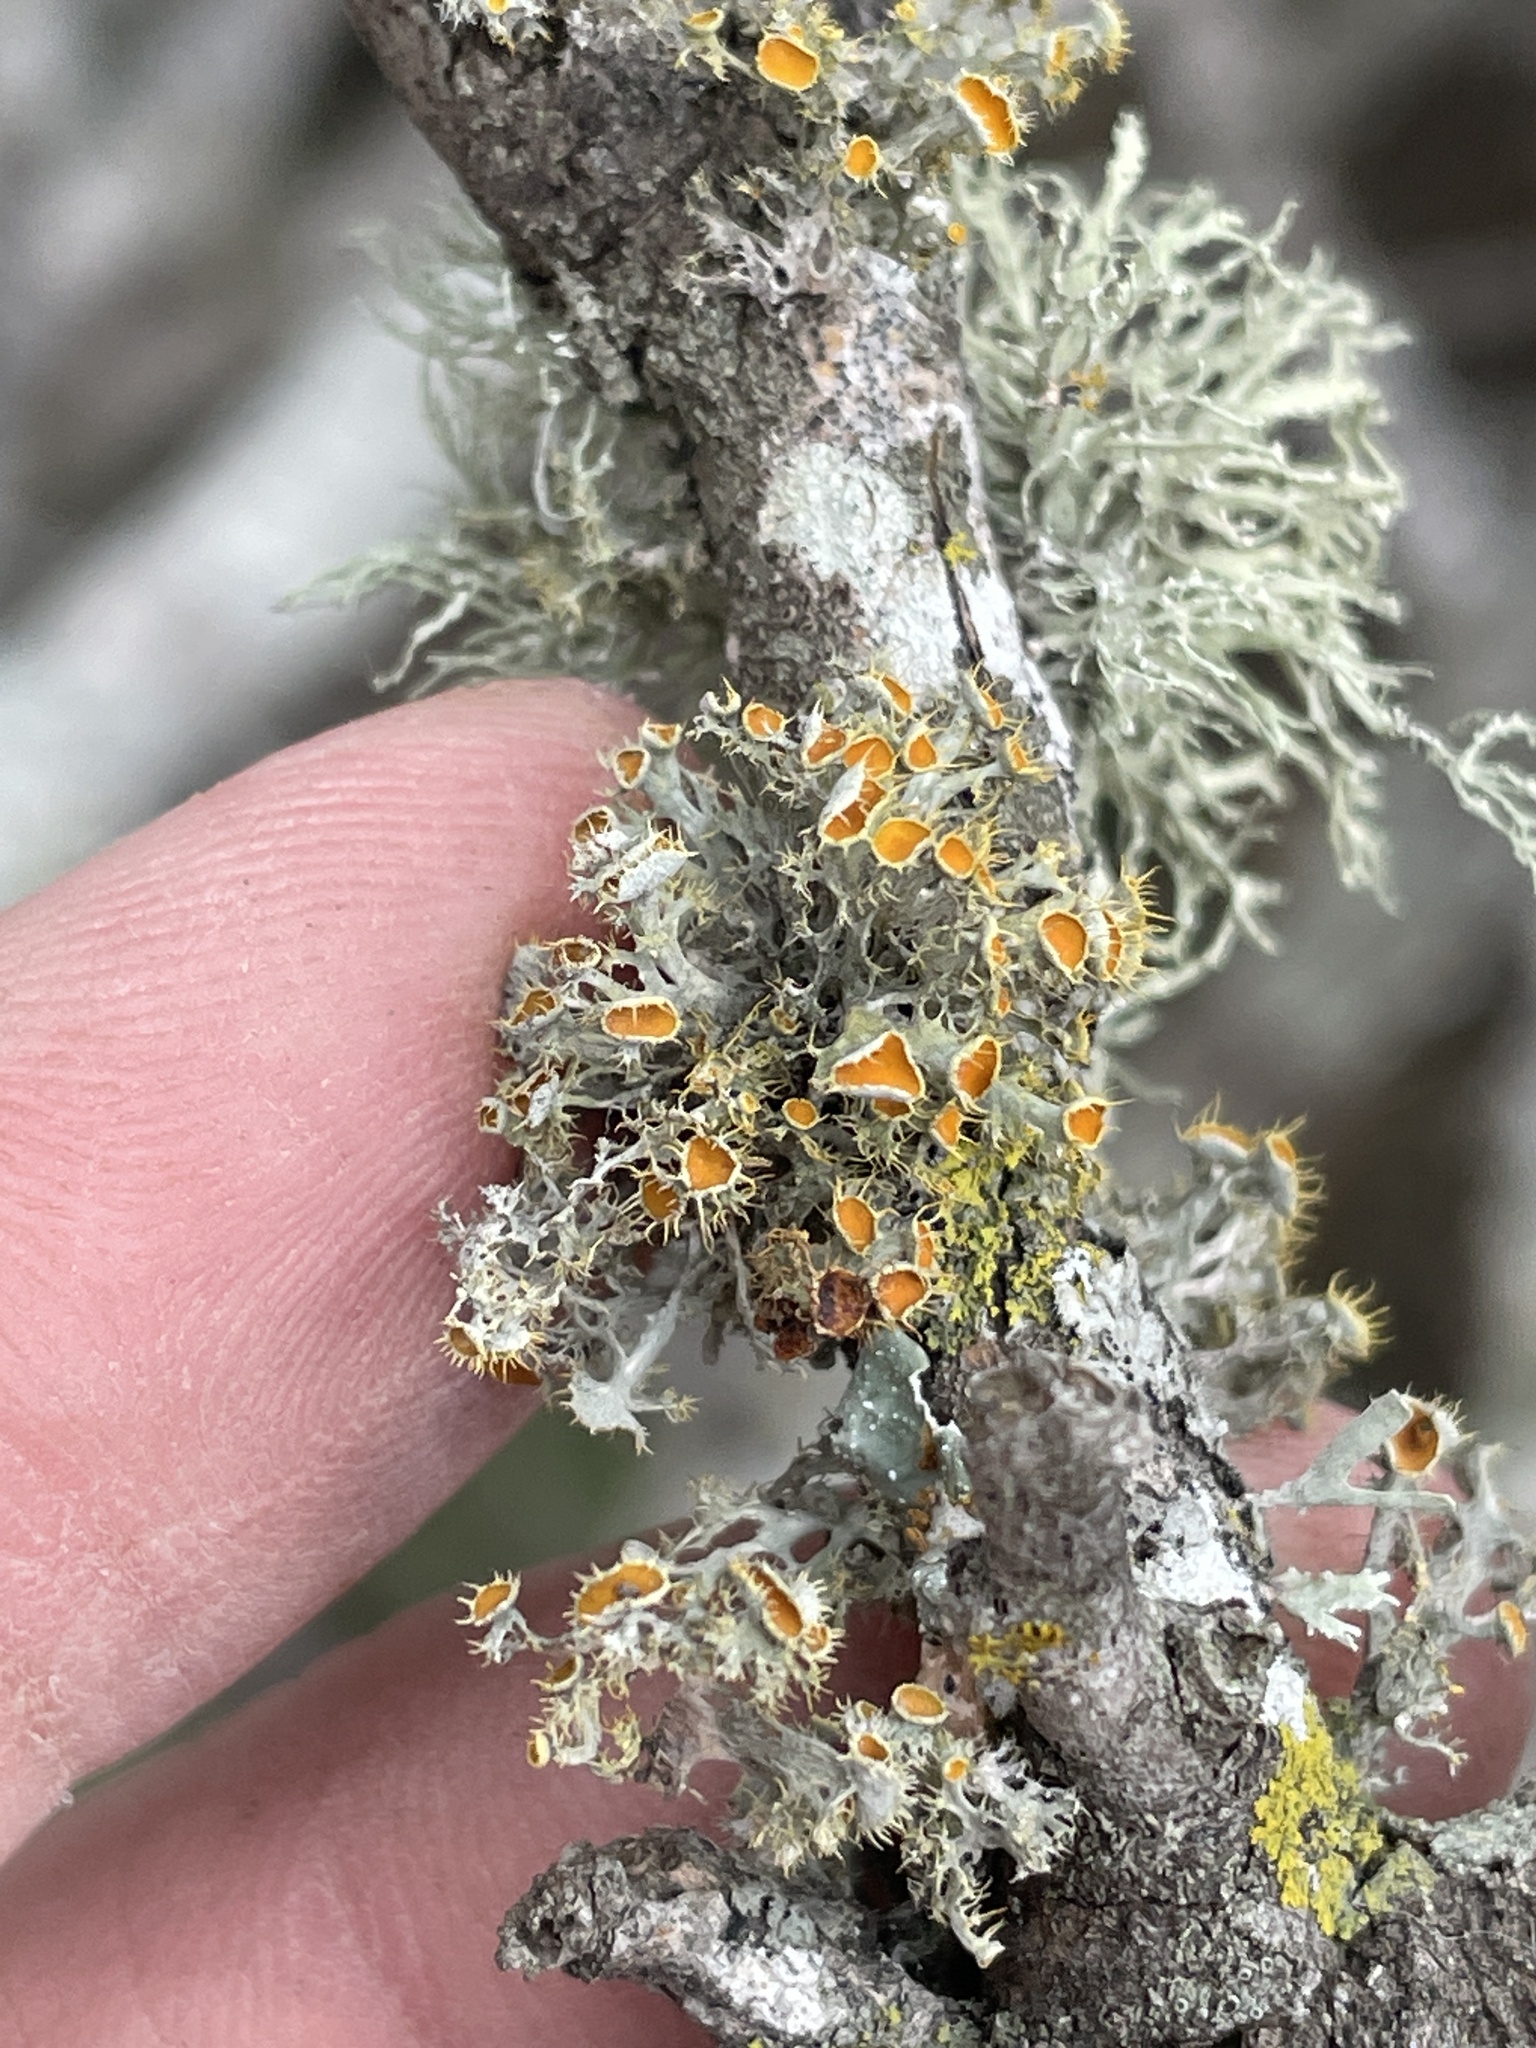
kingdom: Fungi
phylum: Ascomycota
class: Lecanoromycetes
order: Teloschistales
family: Teloschistaceae
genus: Niorma
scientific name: Niorma chrysophthalma
